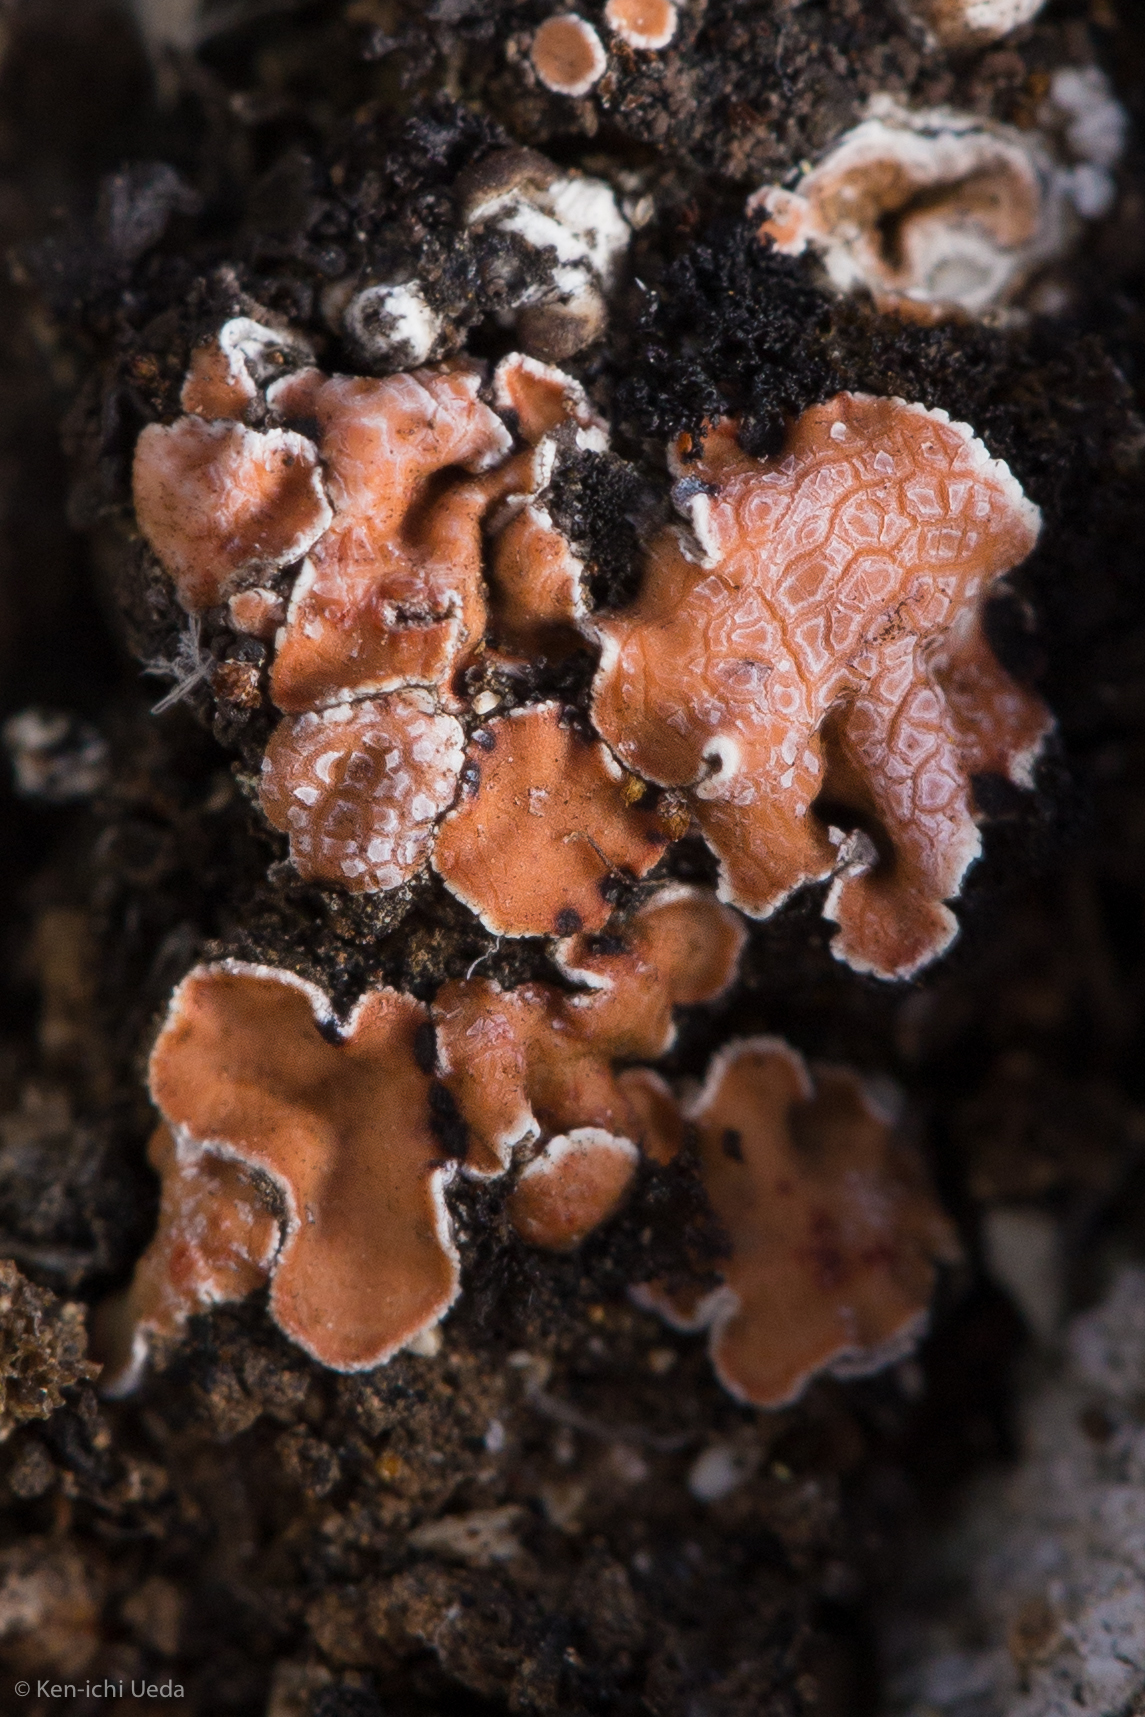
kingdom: Fungi
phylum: Ascomycota
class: Lecanoromycetes
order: Lecanorales
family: Psoraceae
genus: Psora
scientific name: Psora decipiens
